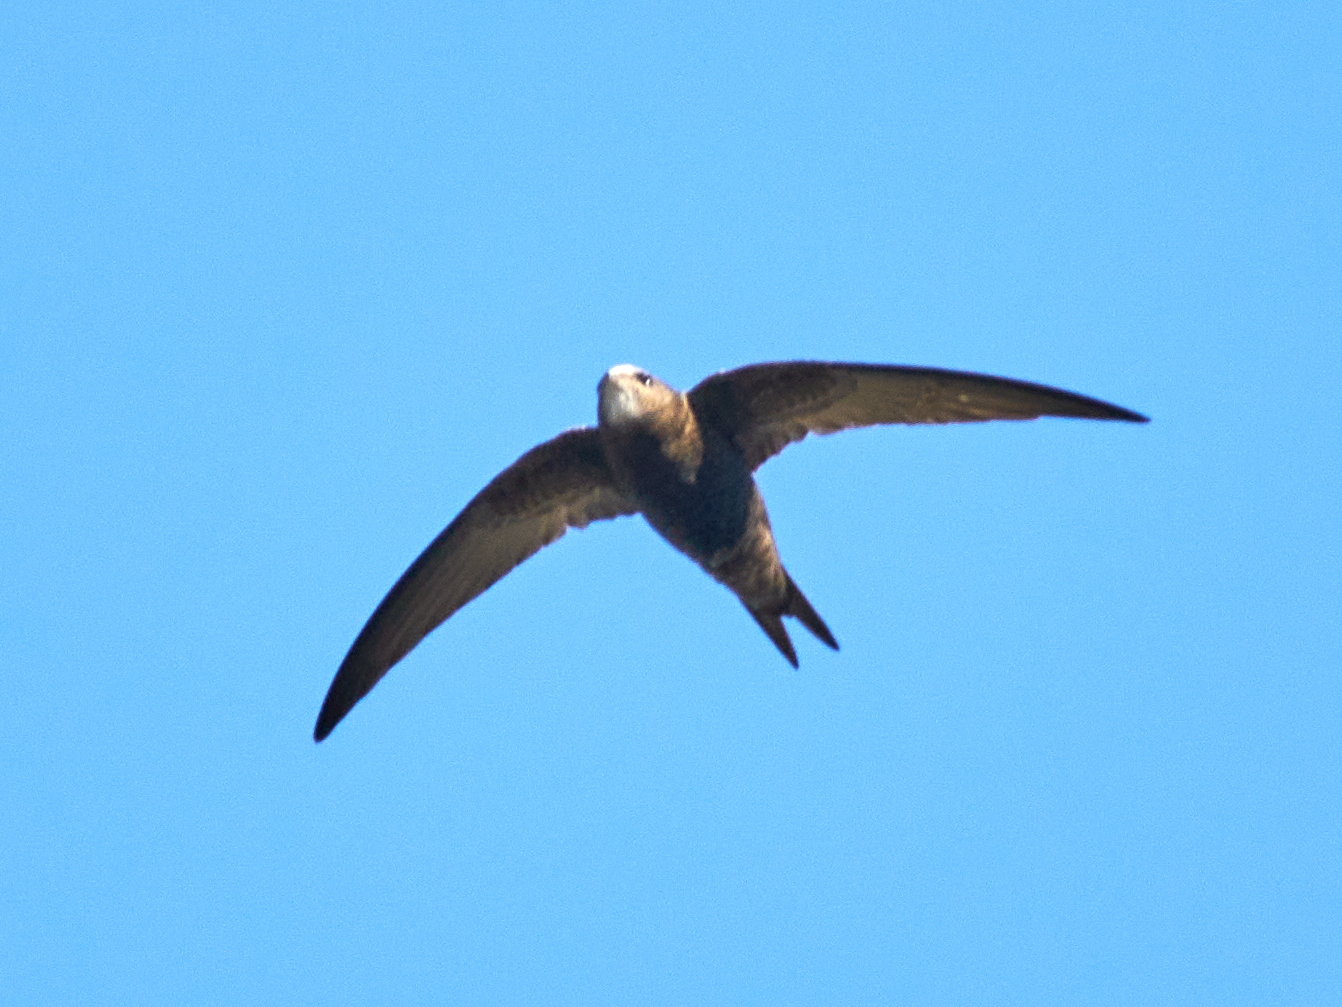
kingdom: Animalia
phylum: Chordata
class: Aves
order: Apodiformes
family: Apodidae
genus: Apus
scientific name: Apus apus
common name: Common swift
